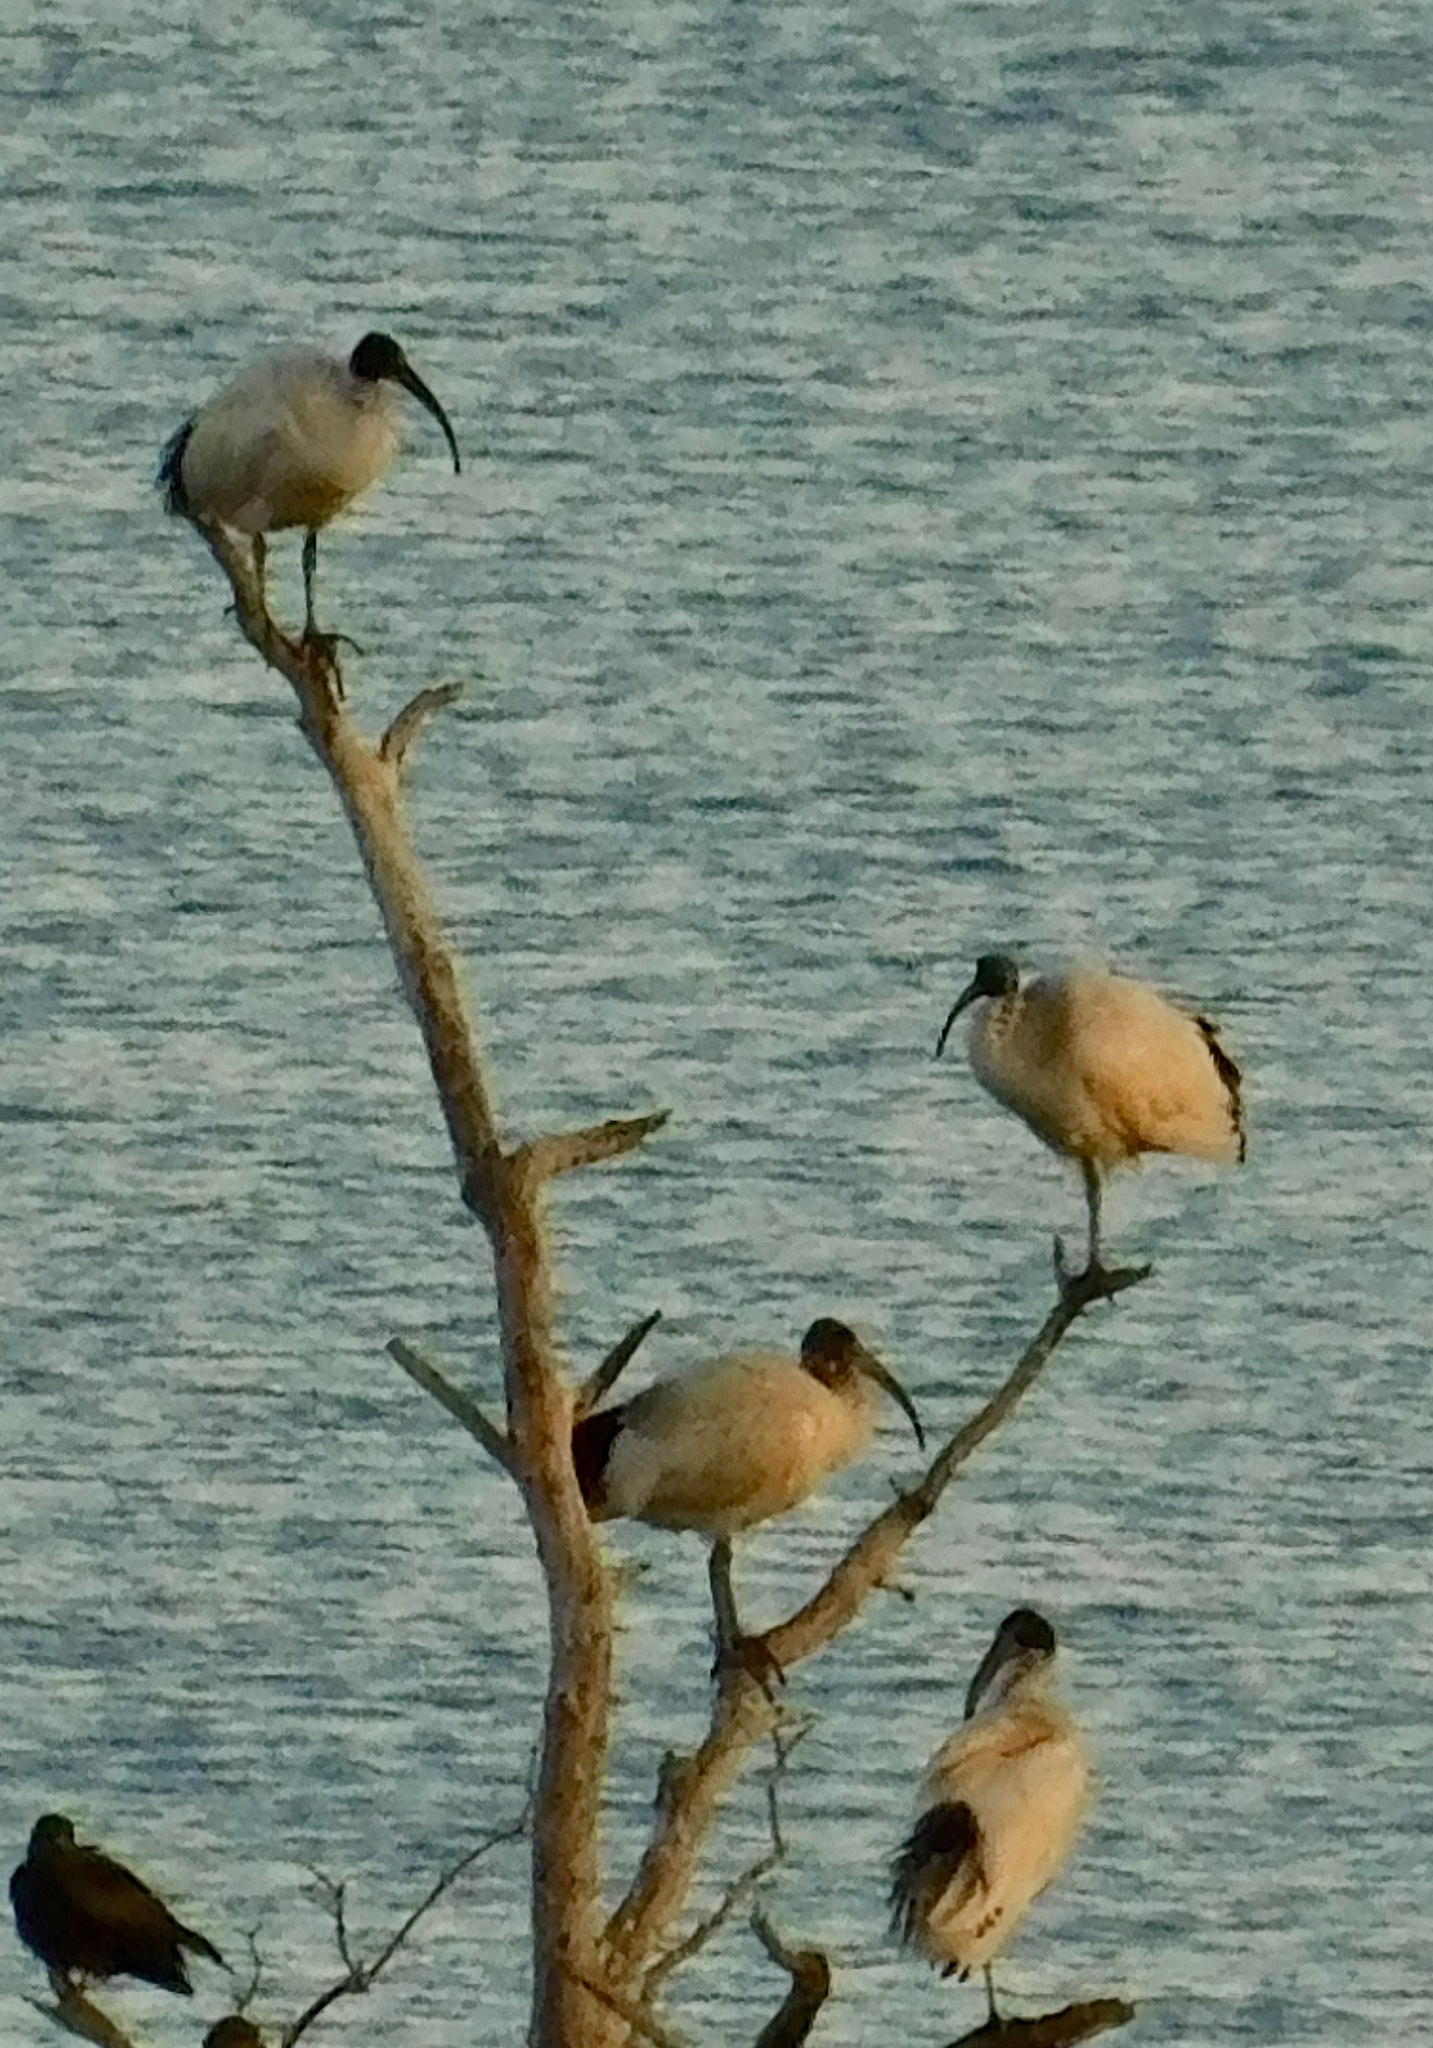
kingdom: Animalia
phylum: Chordata
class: Aves
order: Pelecaniformes
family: Threskiornithidae
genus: Threskiornis
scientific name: Threskiornis molucca
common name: Australian white ibis
